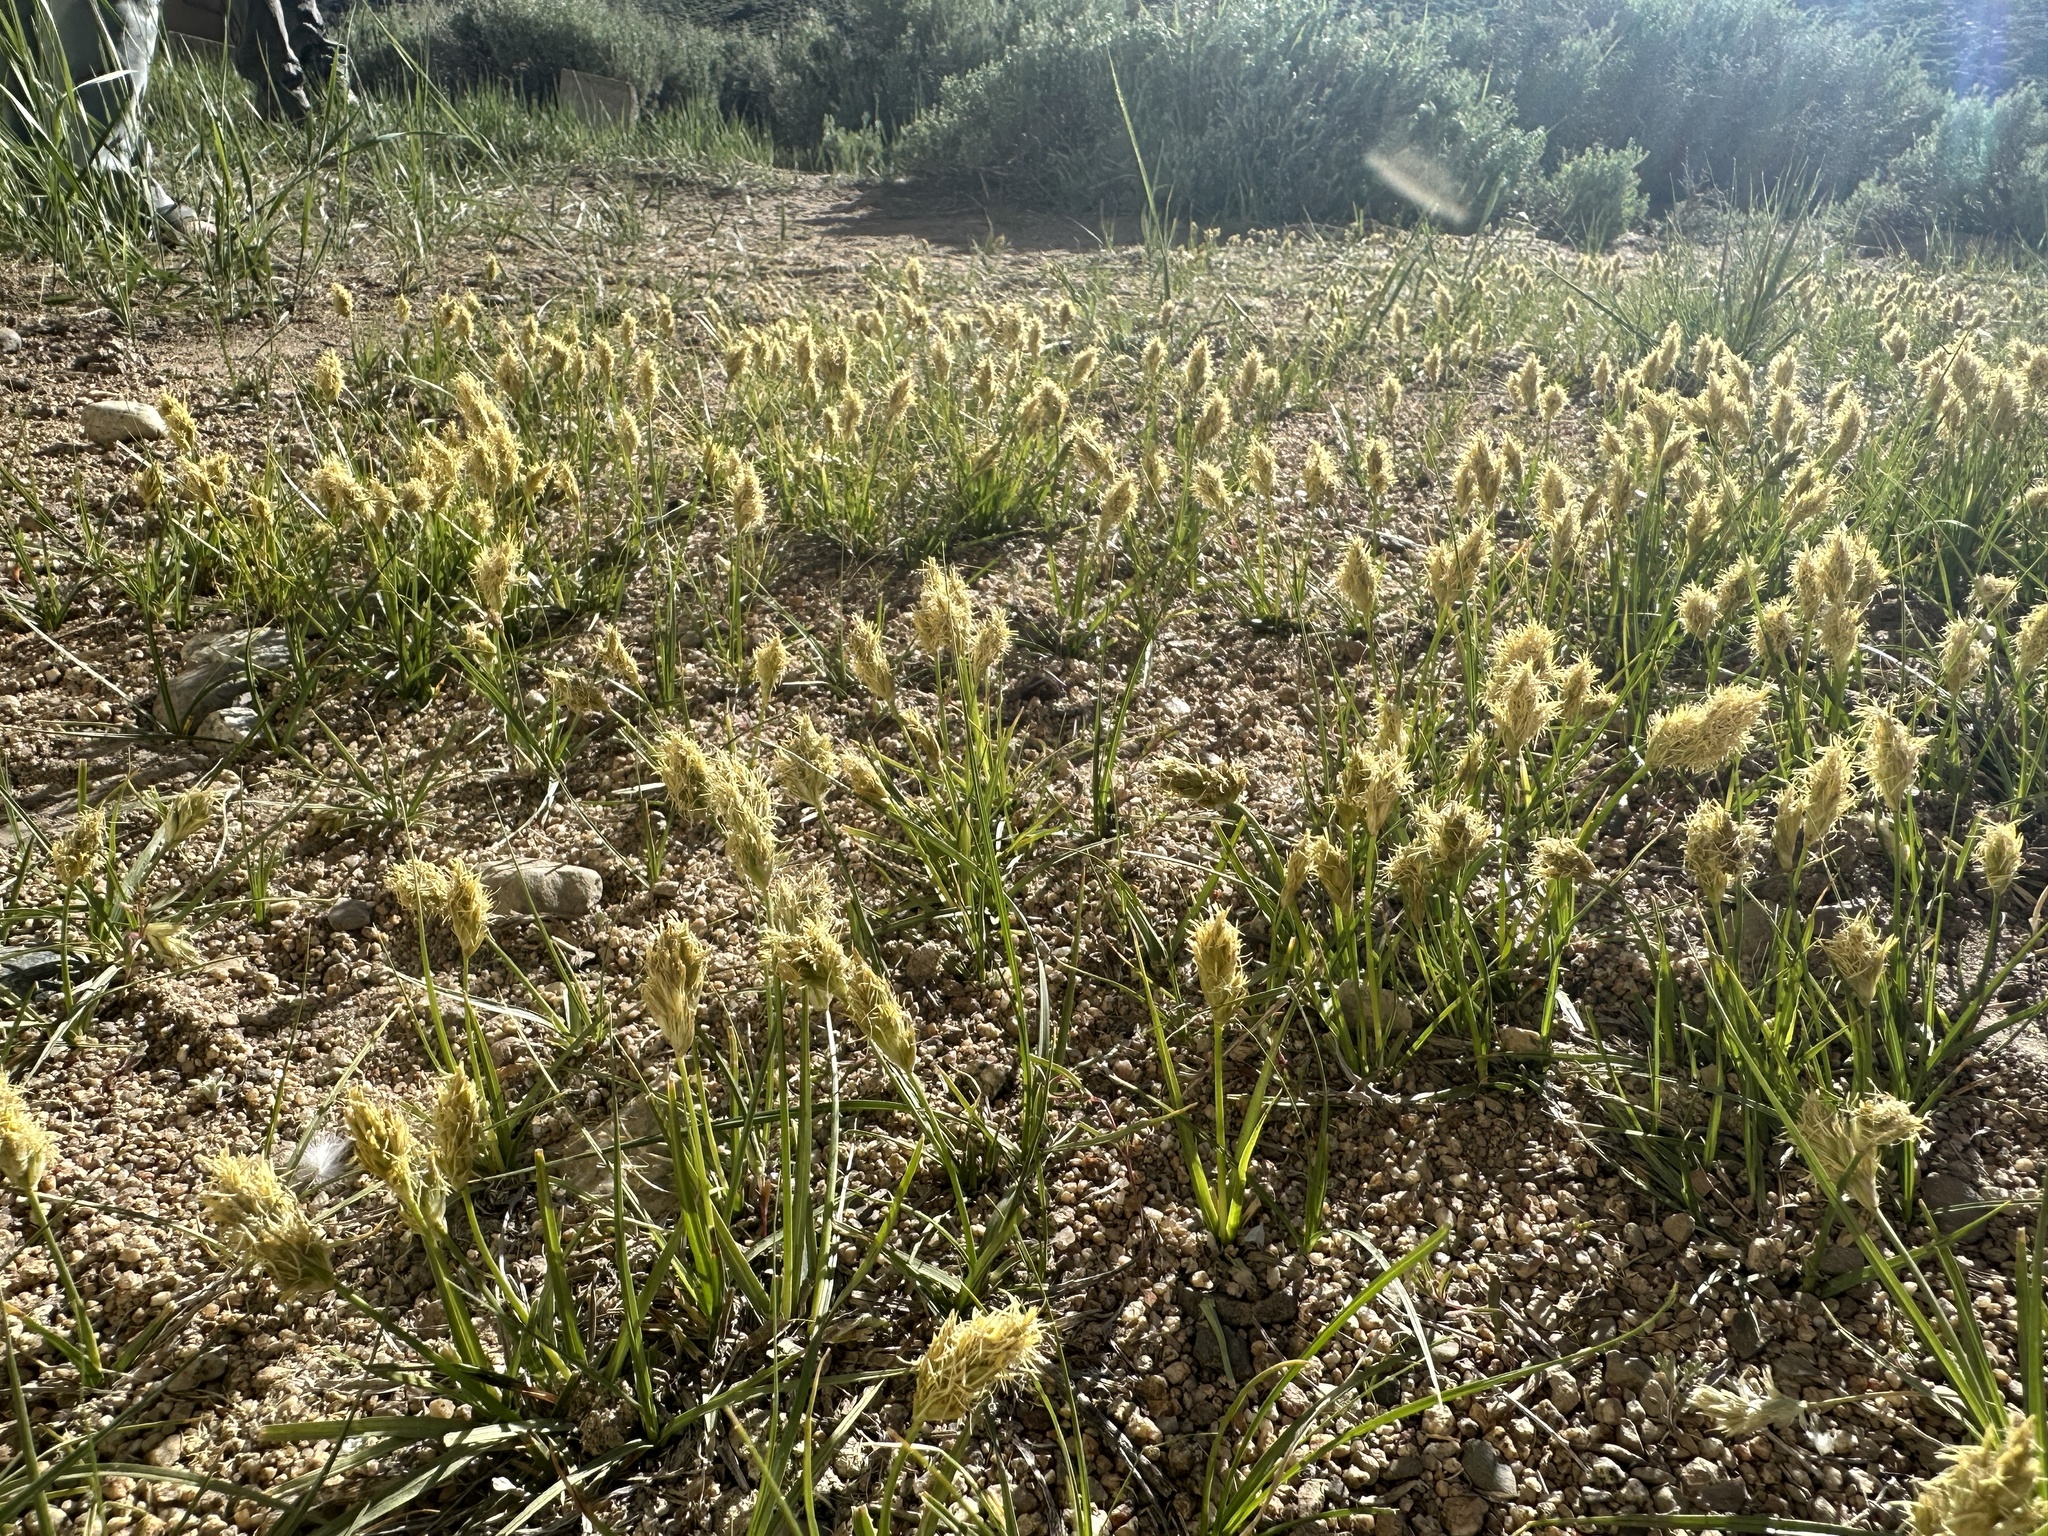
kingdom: Plantae
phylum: Tracheophyta
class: Liliopsida
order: Poales
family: Cyperaceae
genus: Carex
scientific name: Carex douglasii
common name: Douglas' sedge
